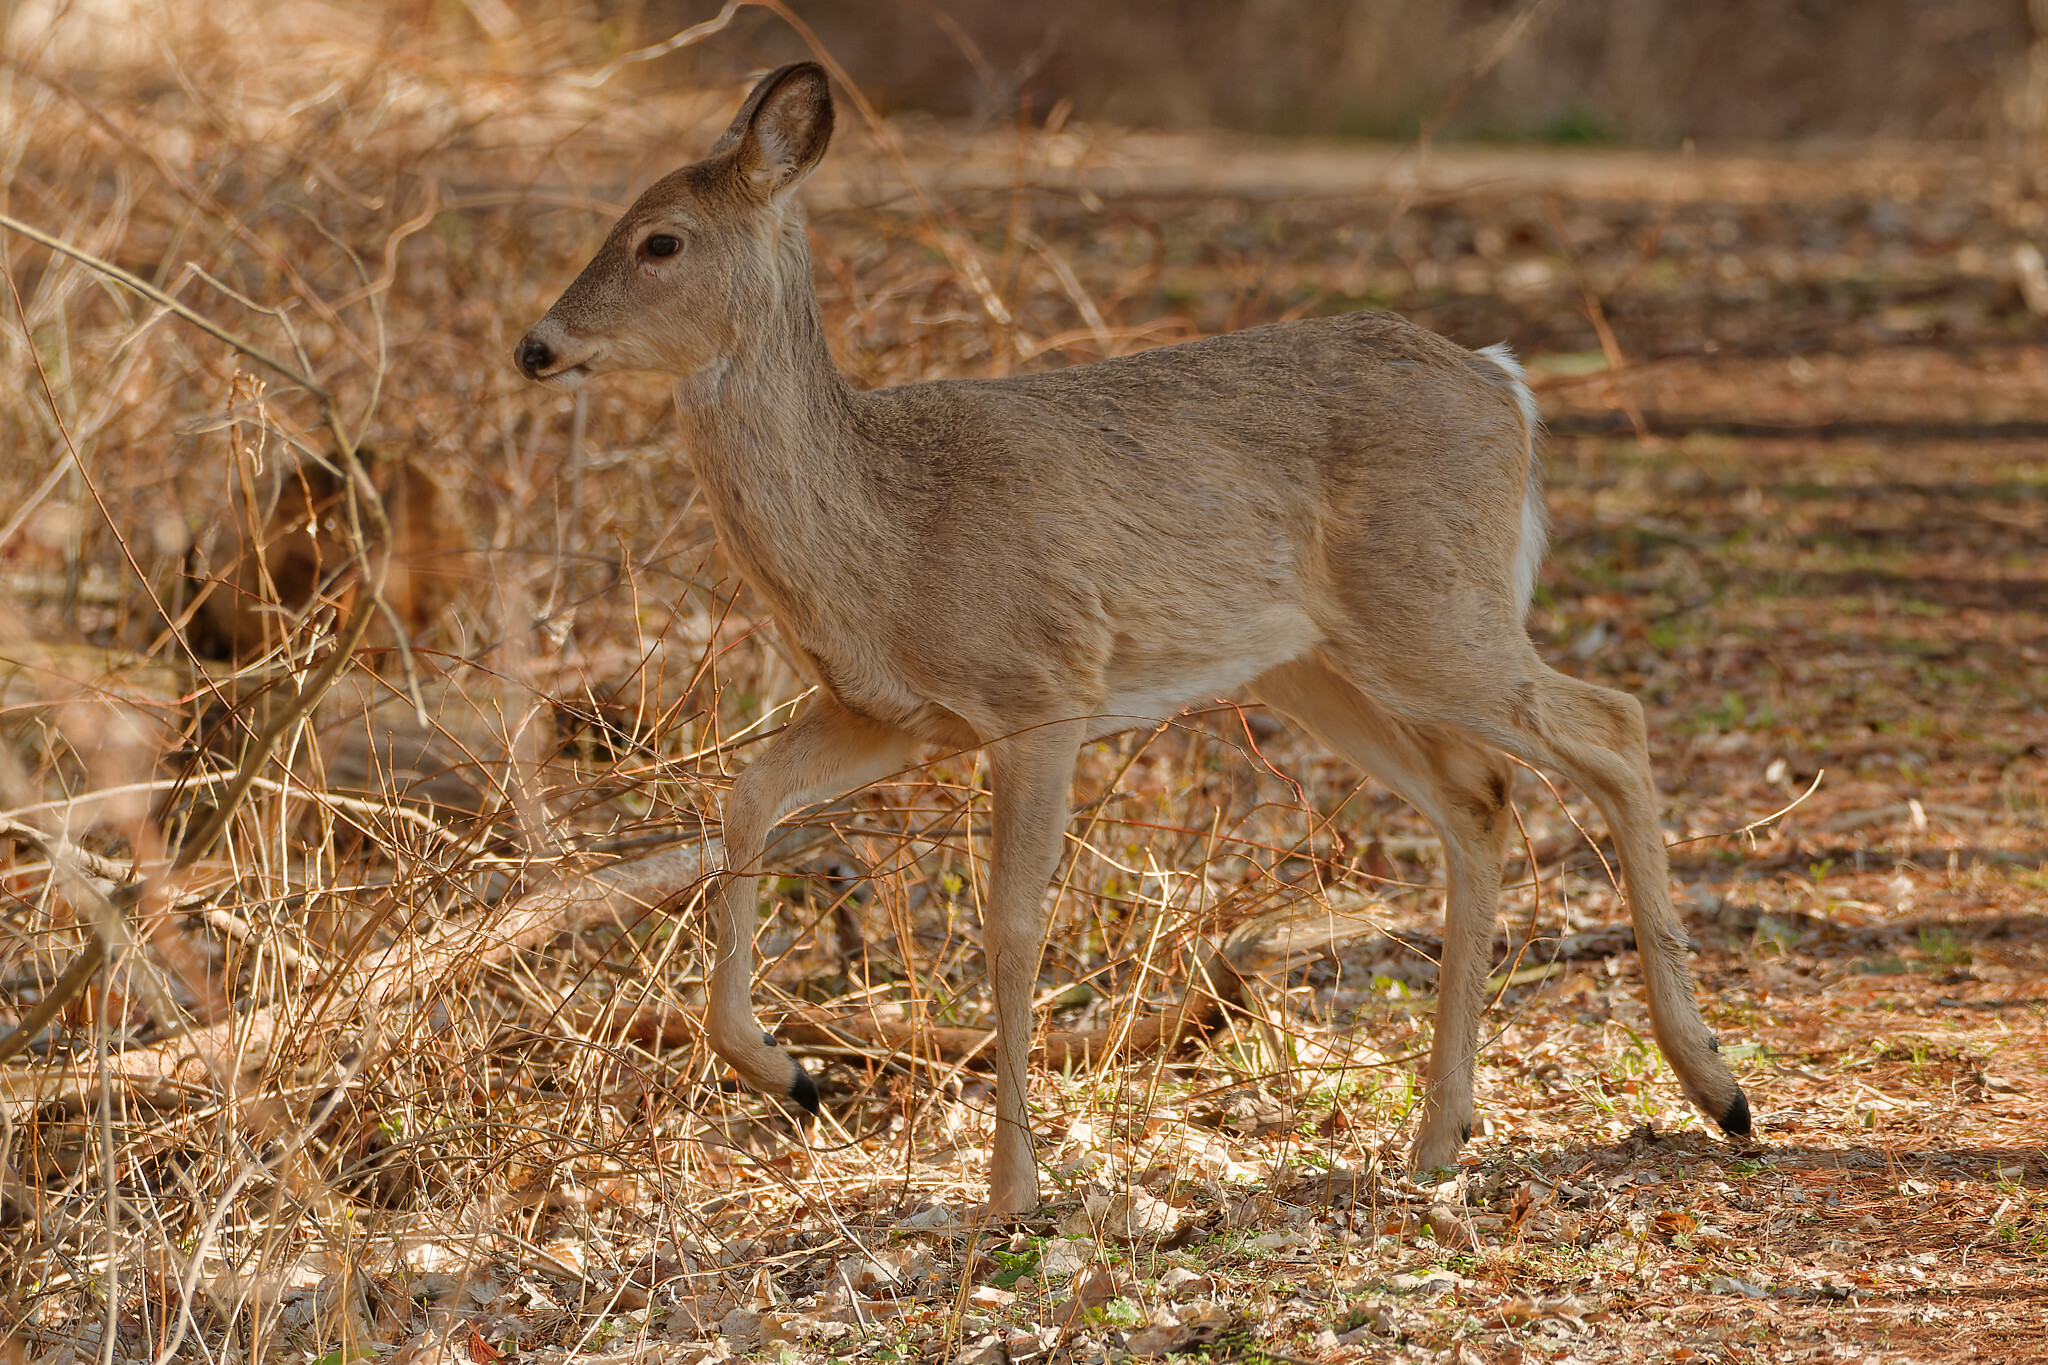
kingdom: Animalia
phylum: Chordata
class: Mammalia
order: Artiodactyla
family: Cervidae
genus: Odocoileus
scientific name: Odocoileus virginianus
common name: White-tailed deer
